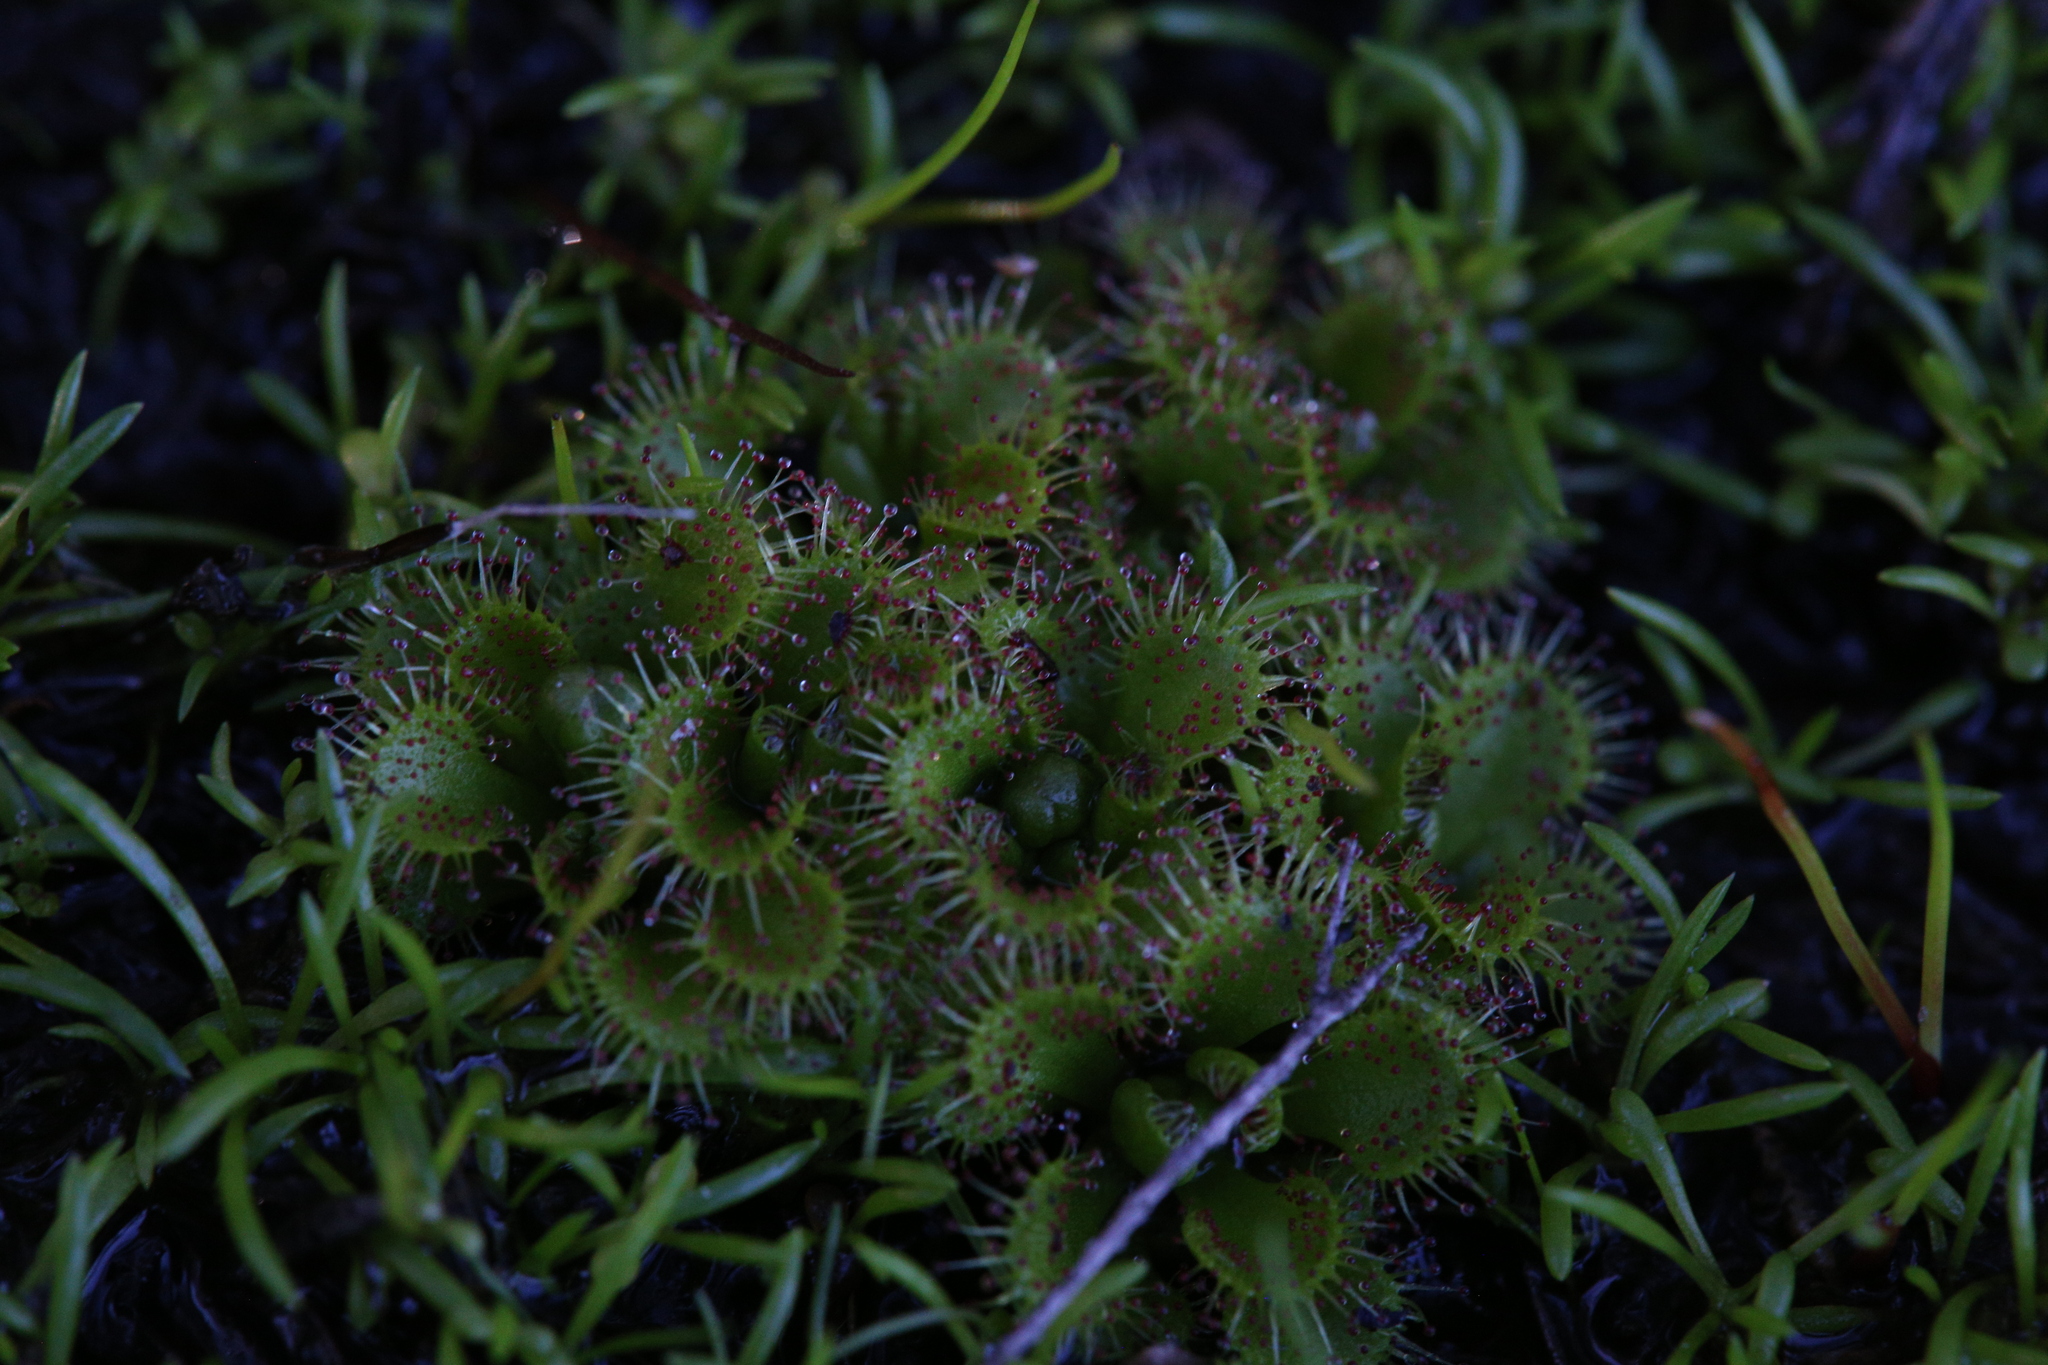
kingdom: Plantae
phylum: Tracheophyta
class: Magnoliopsida
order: Caryophyllales
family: Droseraceae
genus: Drosera
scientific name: Drosera ramellosa
